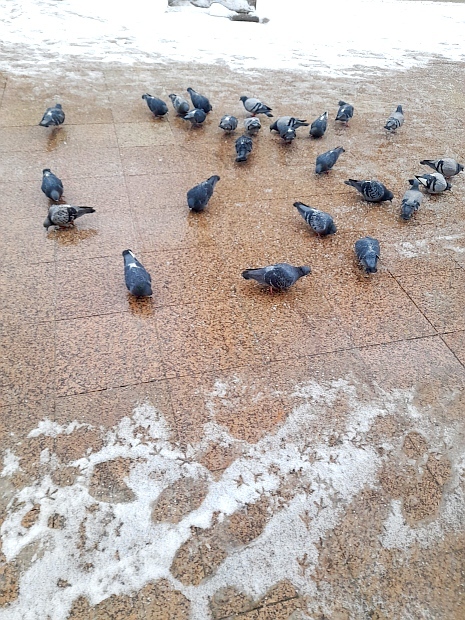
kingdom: Animalia
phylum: Chordata
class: Aves
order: Columbiformes
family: Columbidae
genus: Columba
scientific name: Columba livia
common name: Rock pigeon
